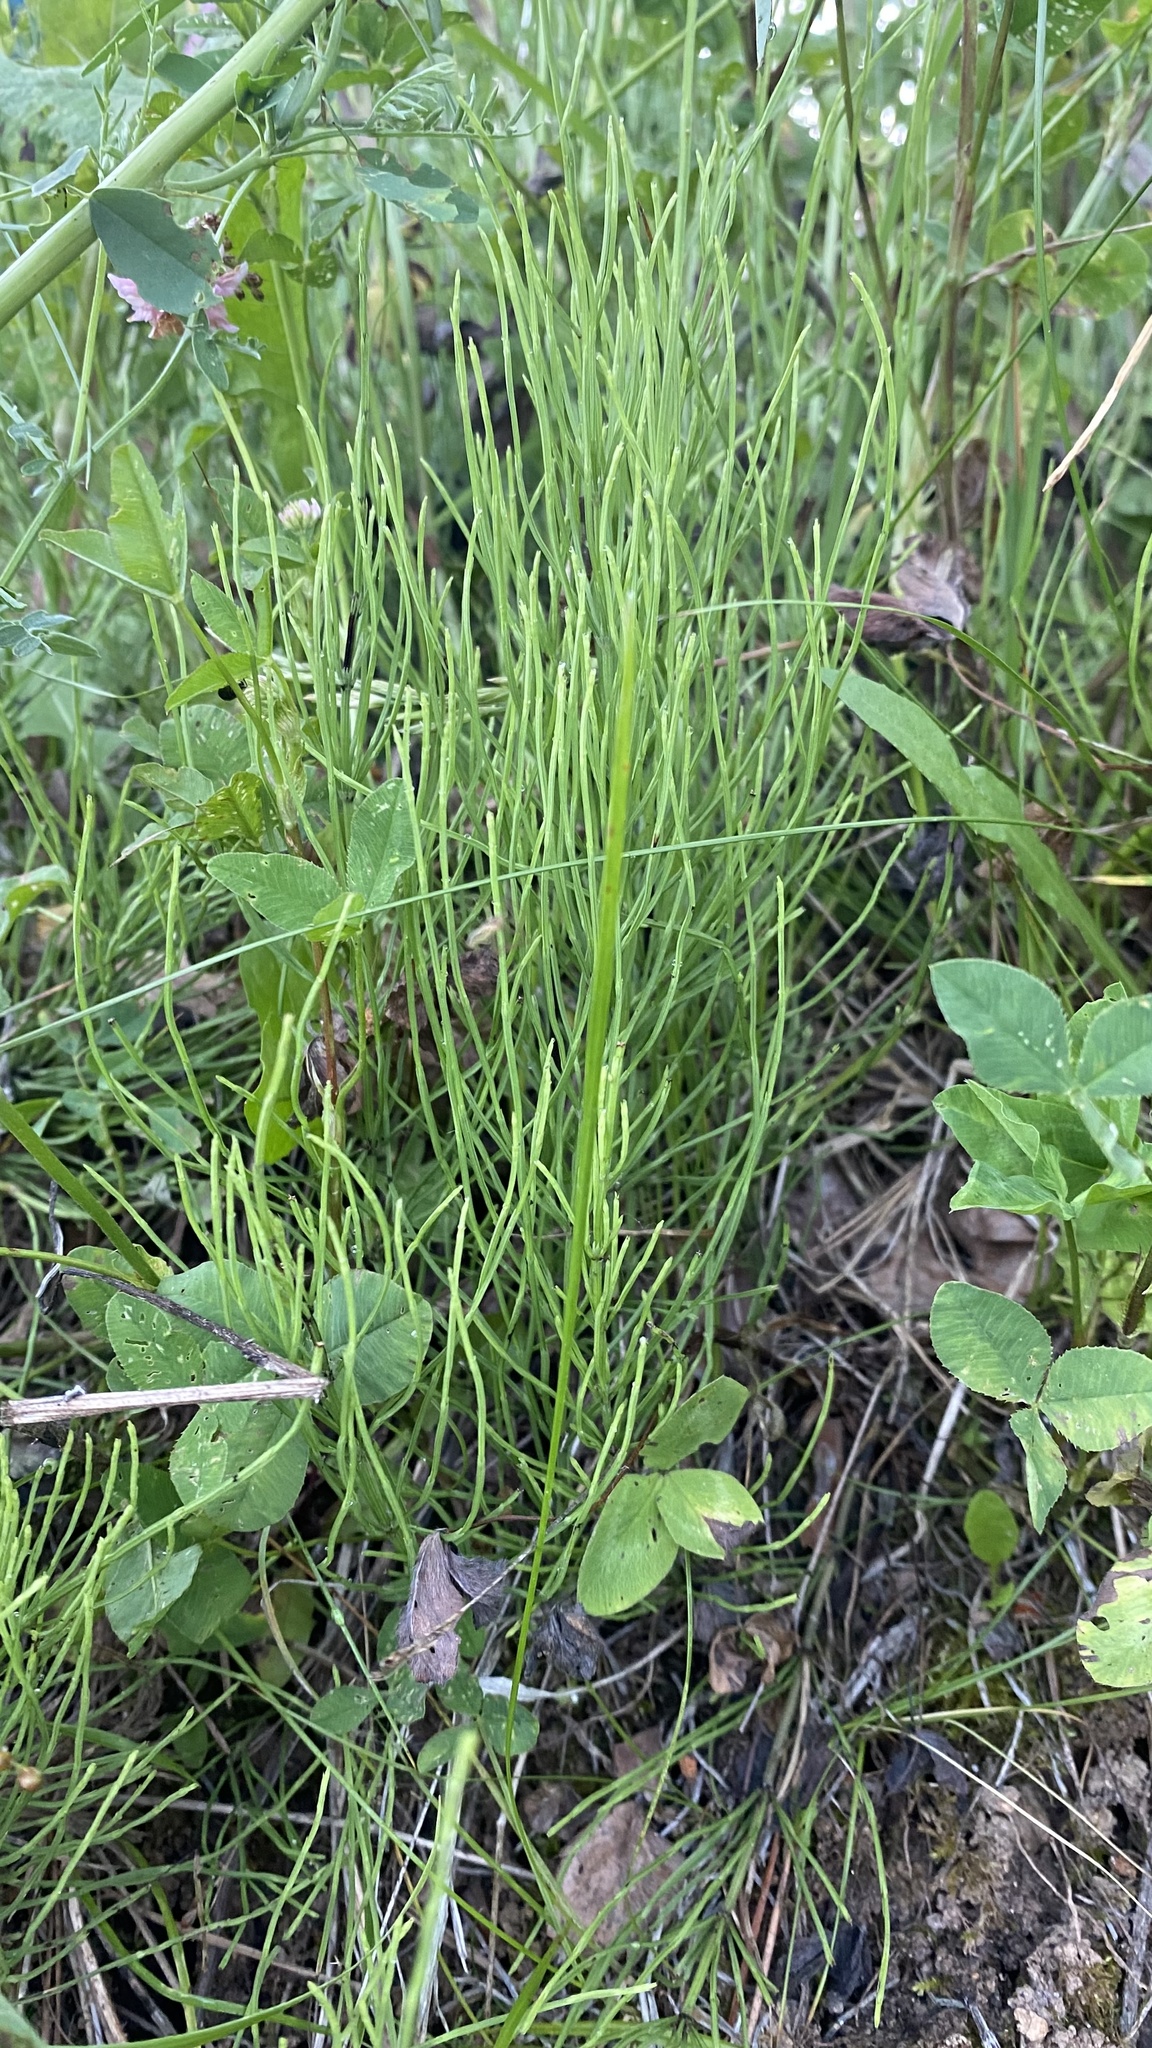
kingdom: Plantae
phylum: Tracheophyta
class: Polypodiopsida
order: Equisetales
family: Equisetaceae
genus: Equisetum
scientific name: Equisetum arvense
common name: Field horsetail
